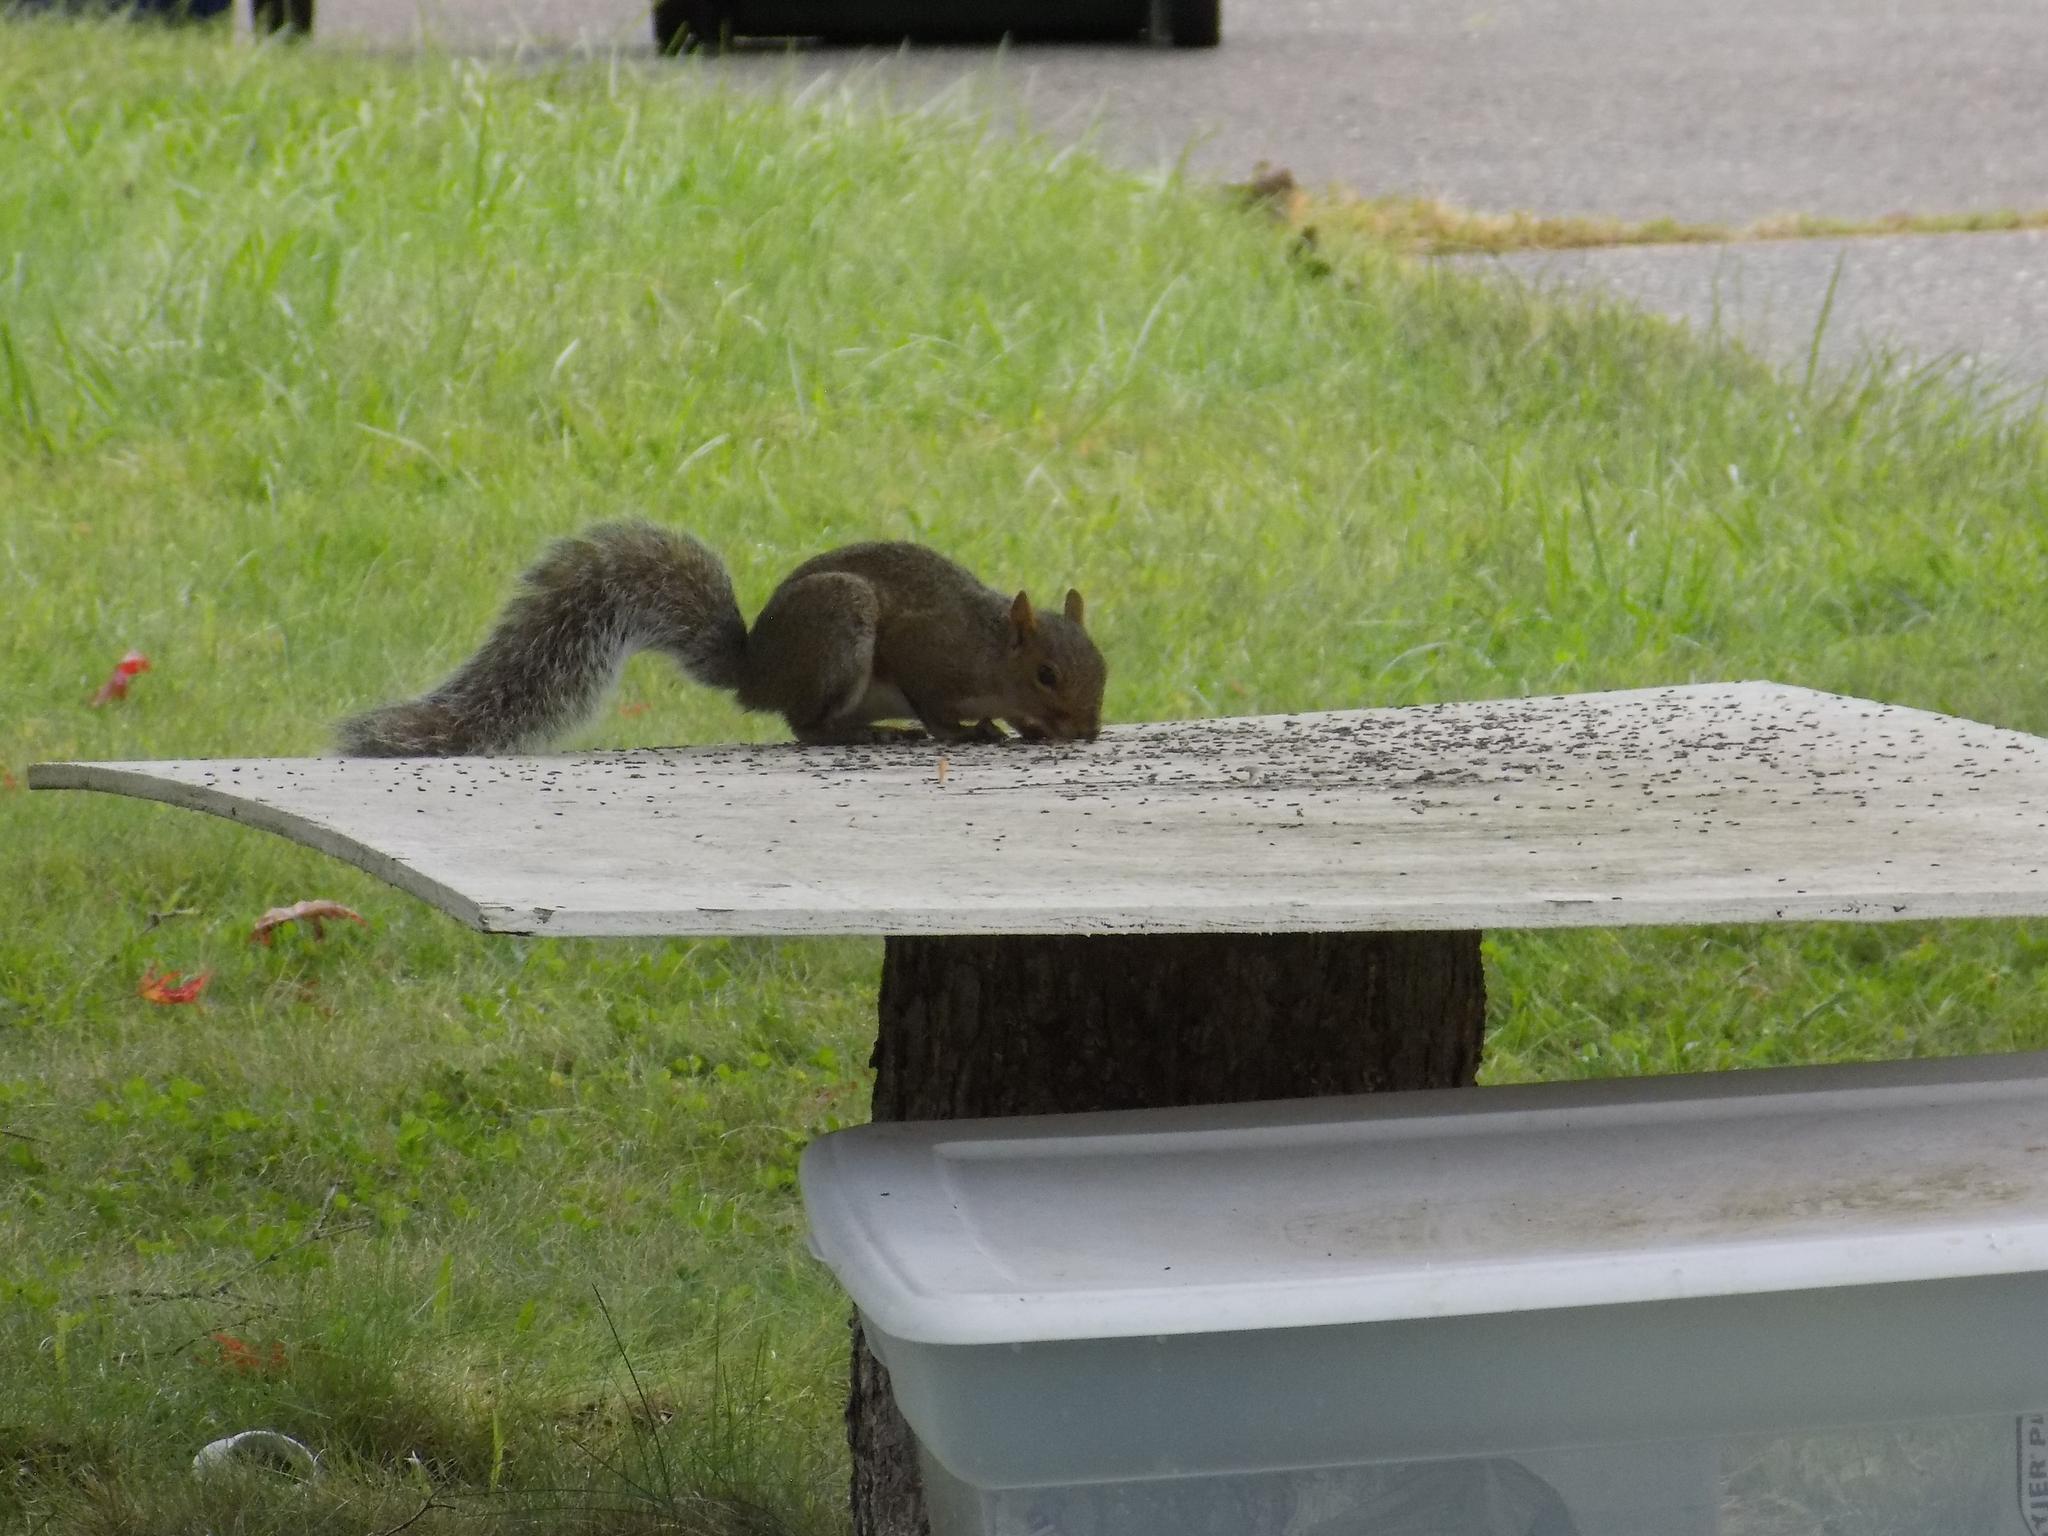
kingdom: Animalia
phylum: Chordata
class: Mammalia
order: Rodentia
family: Sciuridae
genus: Sciurus
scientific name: Sciurus carolinensis
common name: Eastern gray squirrel
